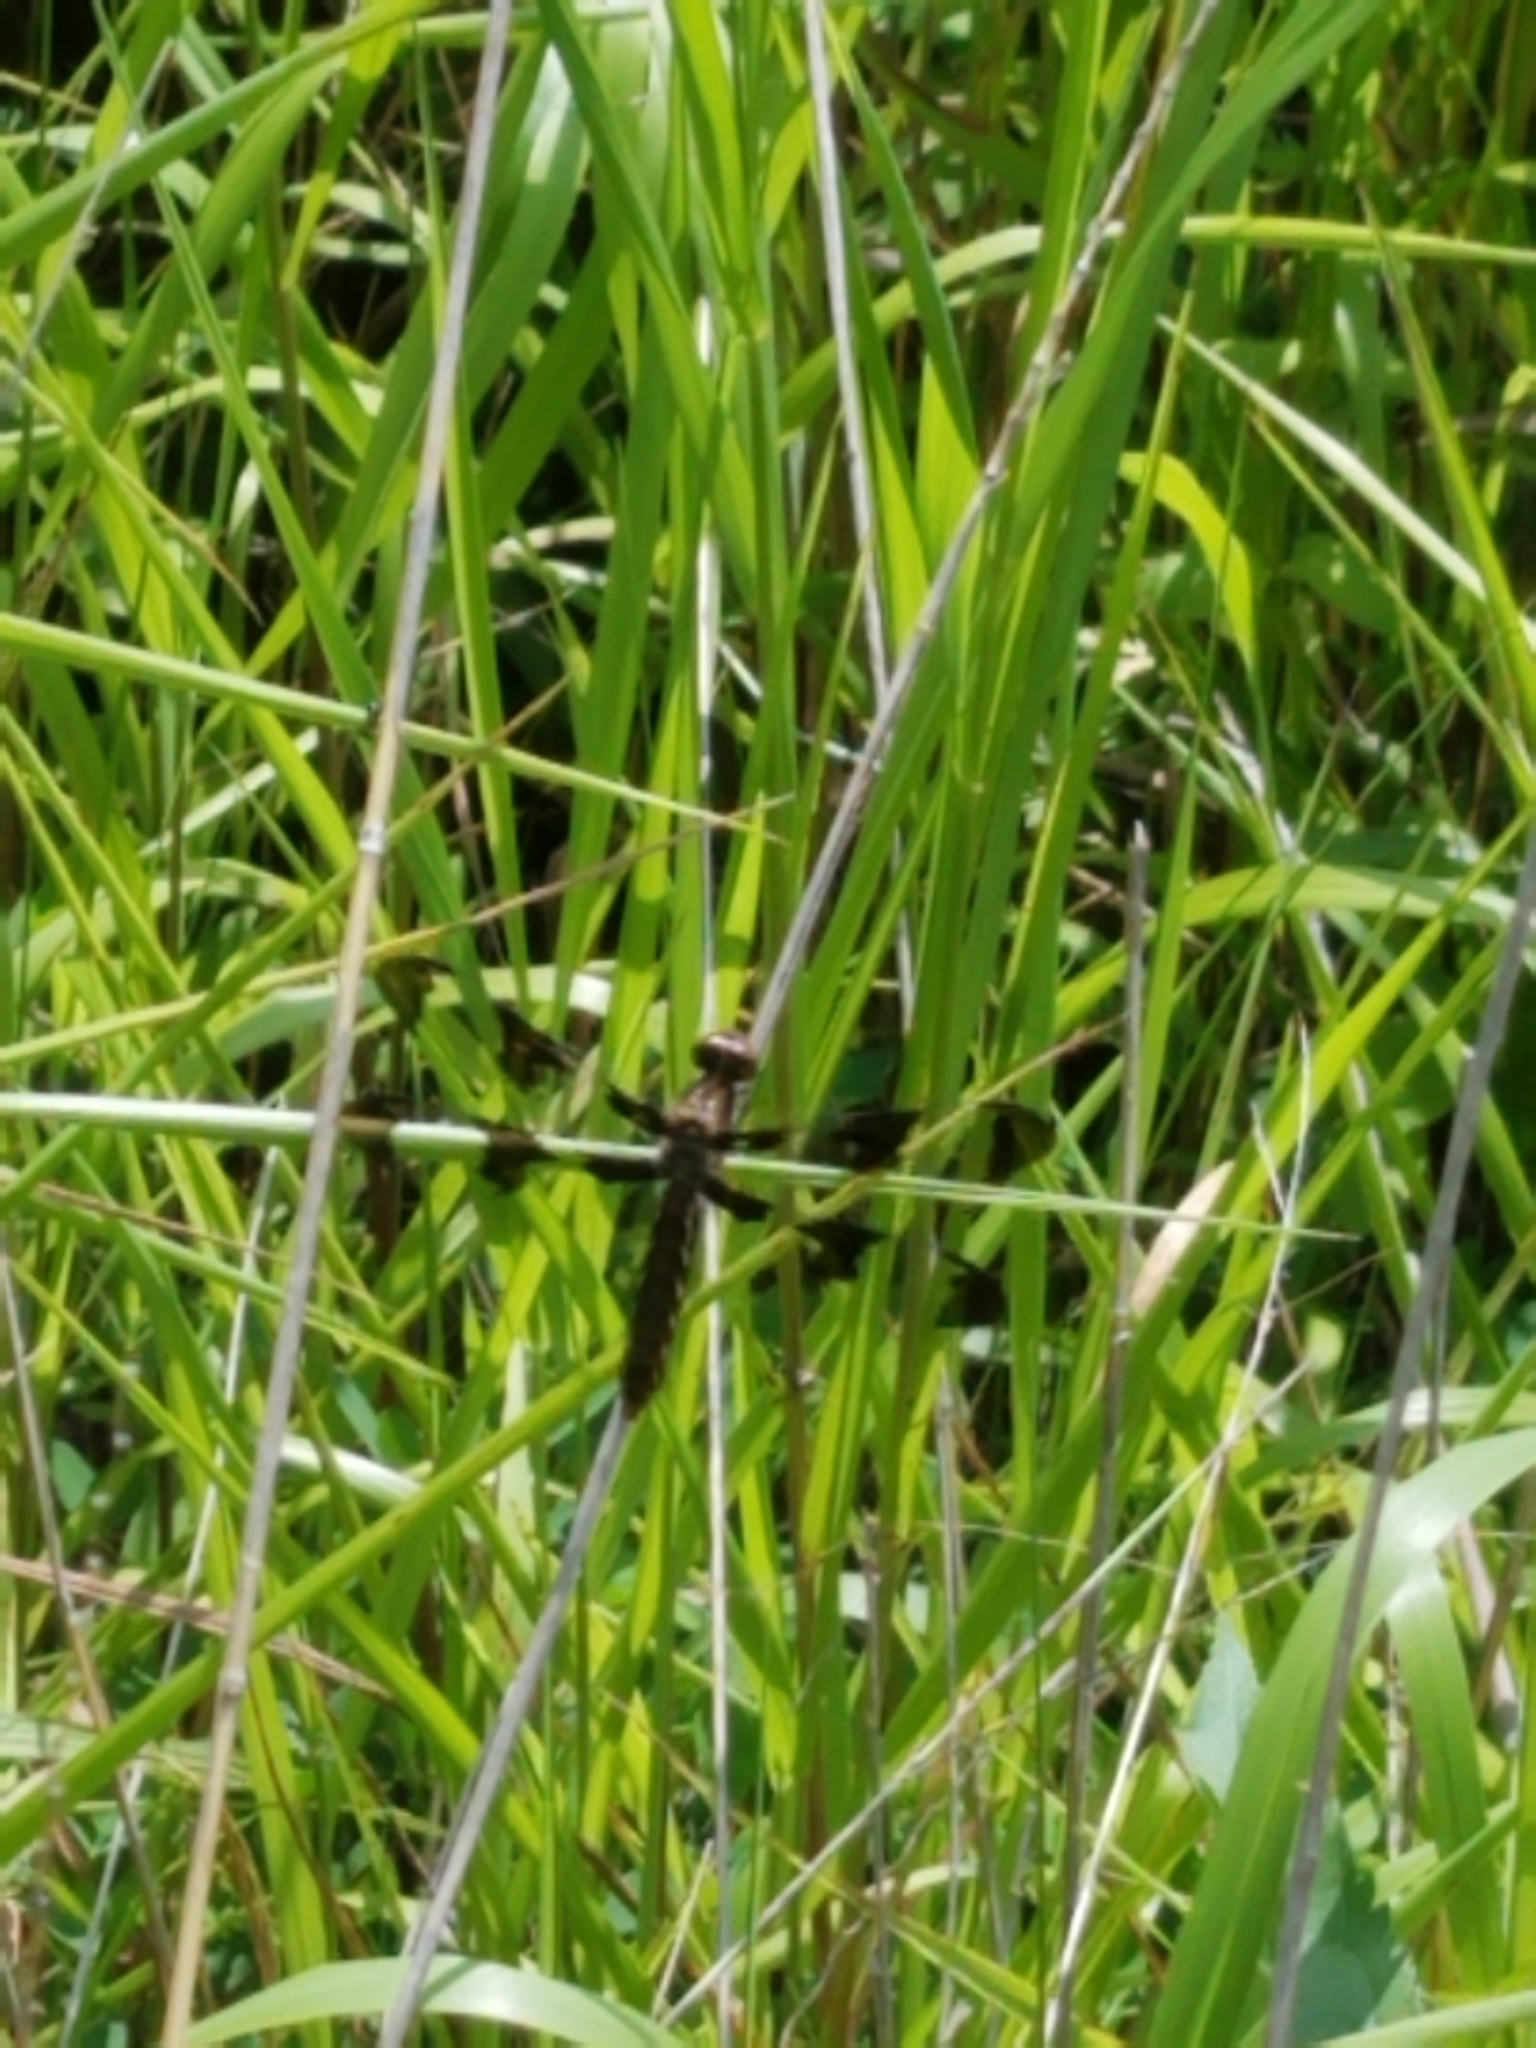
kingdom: Animalia
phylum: Arthropoda
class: Insecta
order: Odonata
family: Libellulidae
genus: Plathemis
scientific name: Plathemis lydia
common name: Common whitetail
